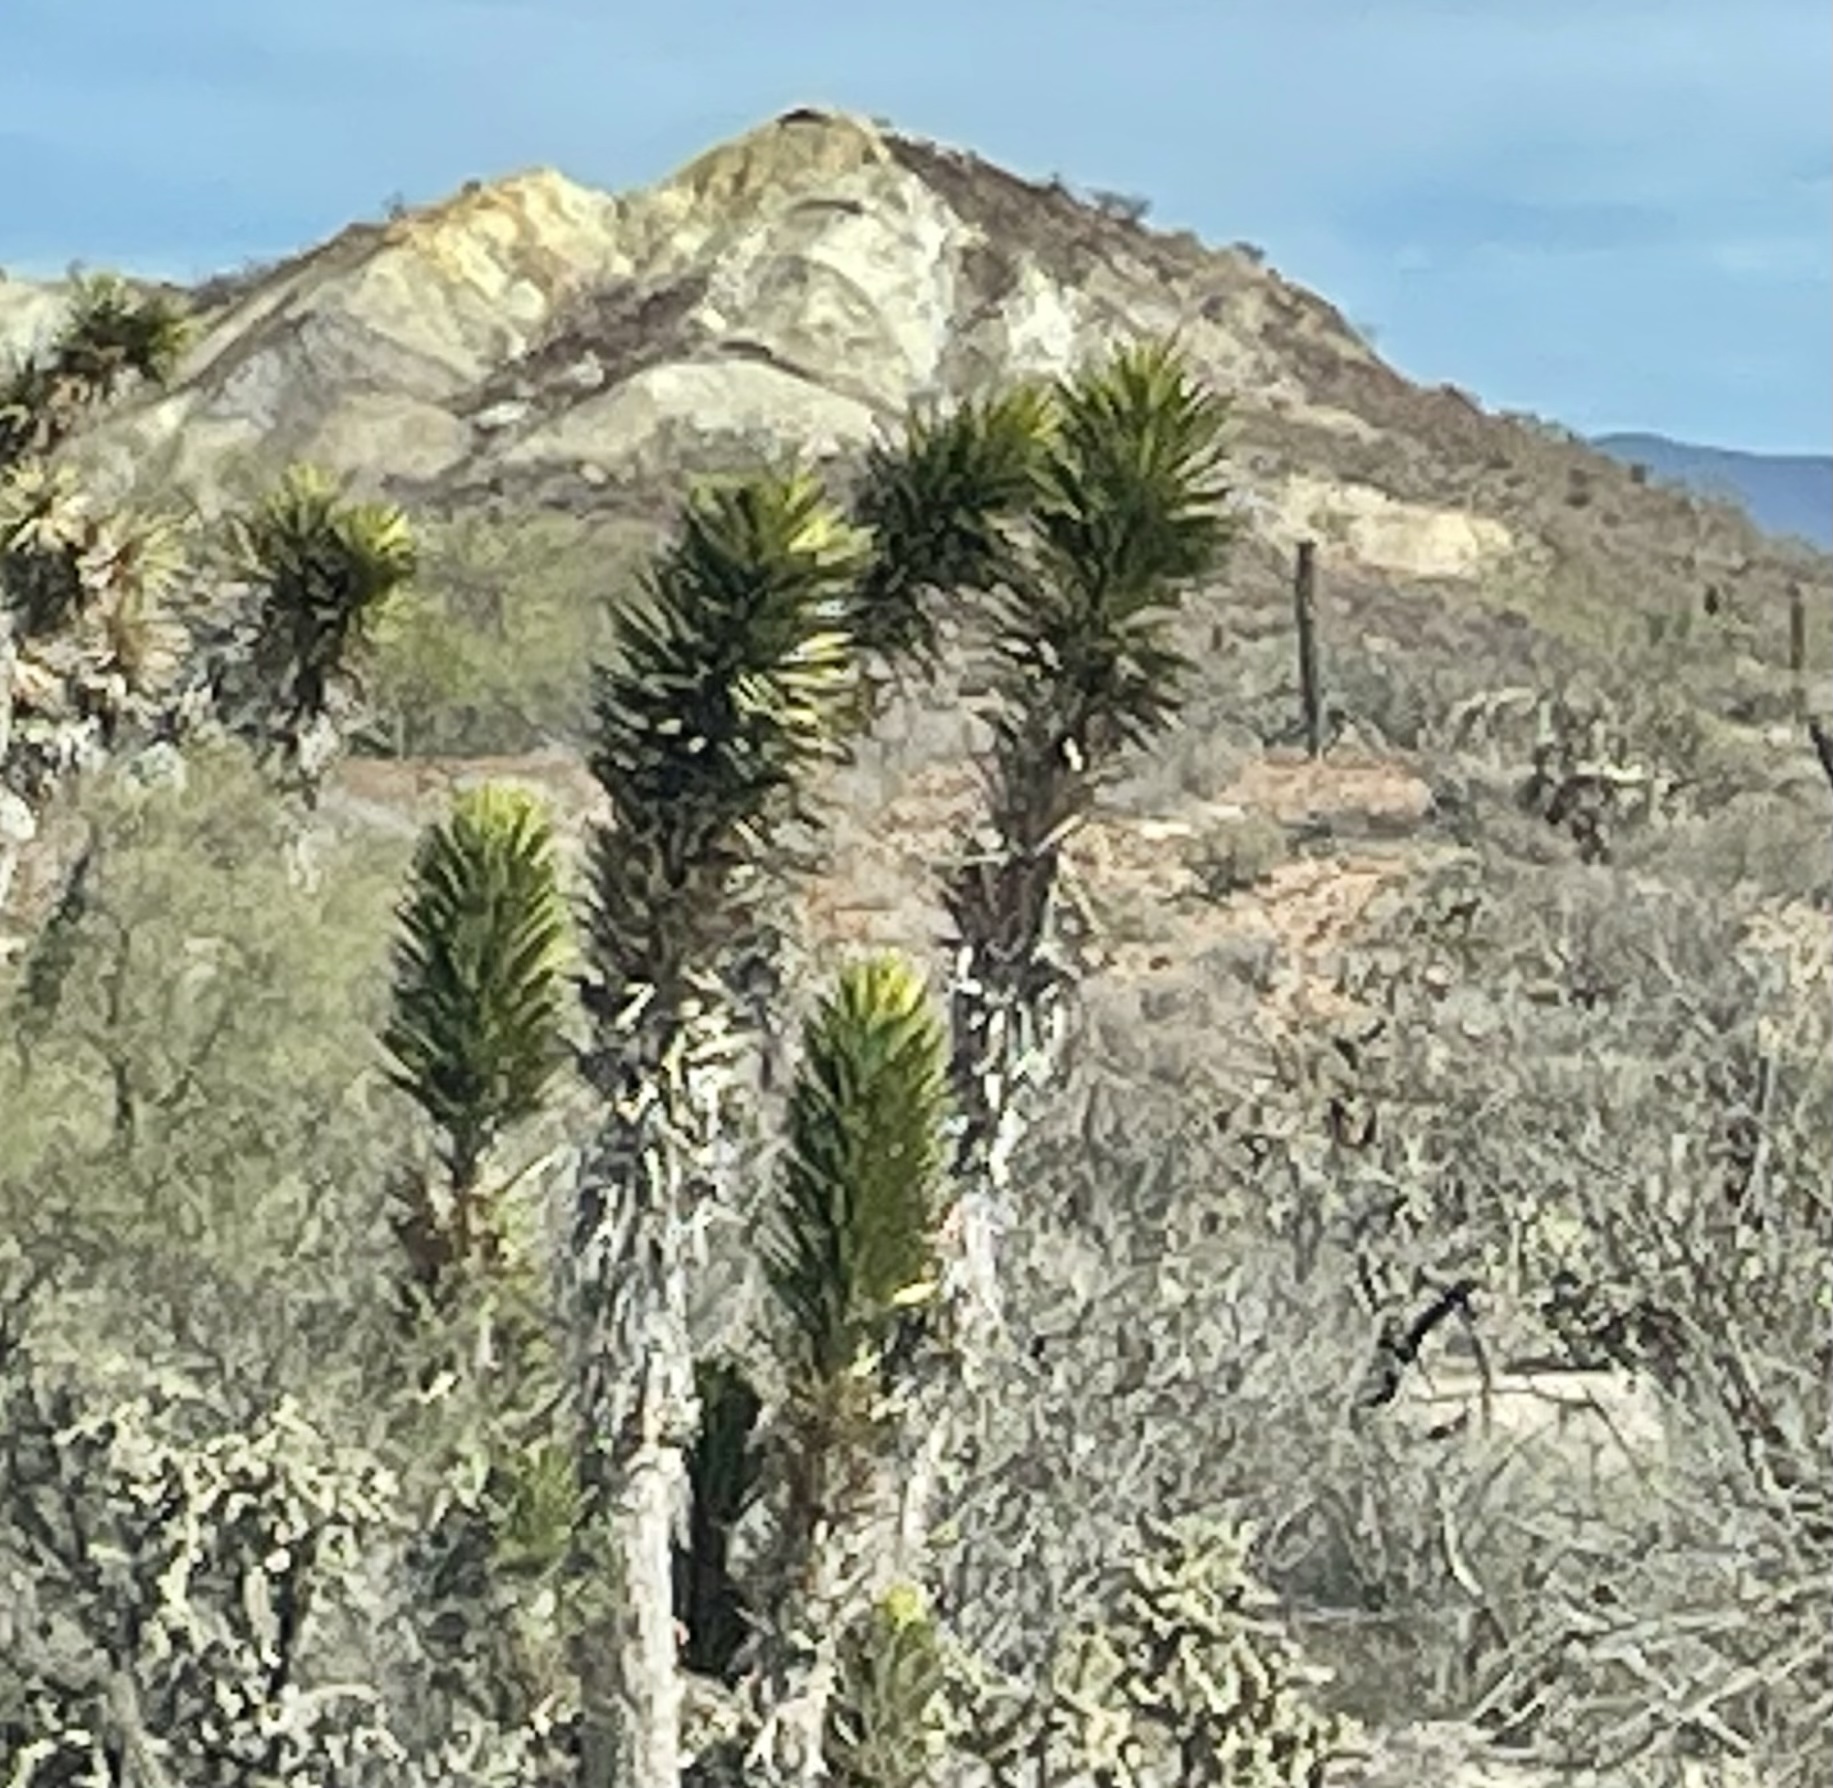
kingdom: Plantae
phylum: Tracheophyta
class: Liliopsida
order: Asparagales
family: Asparagaceae
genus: Yucca
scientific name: Yucca valida
